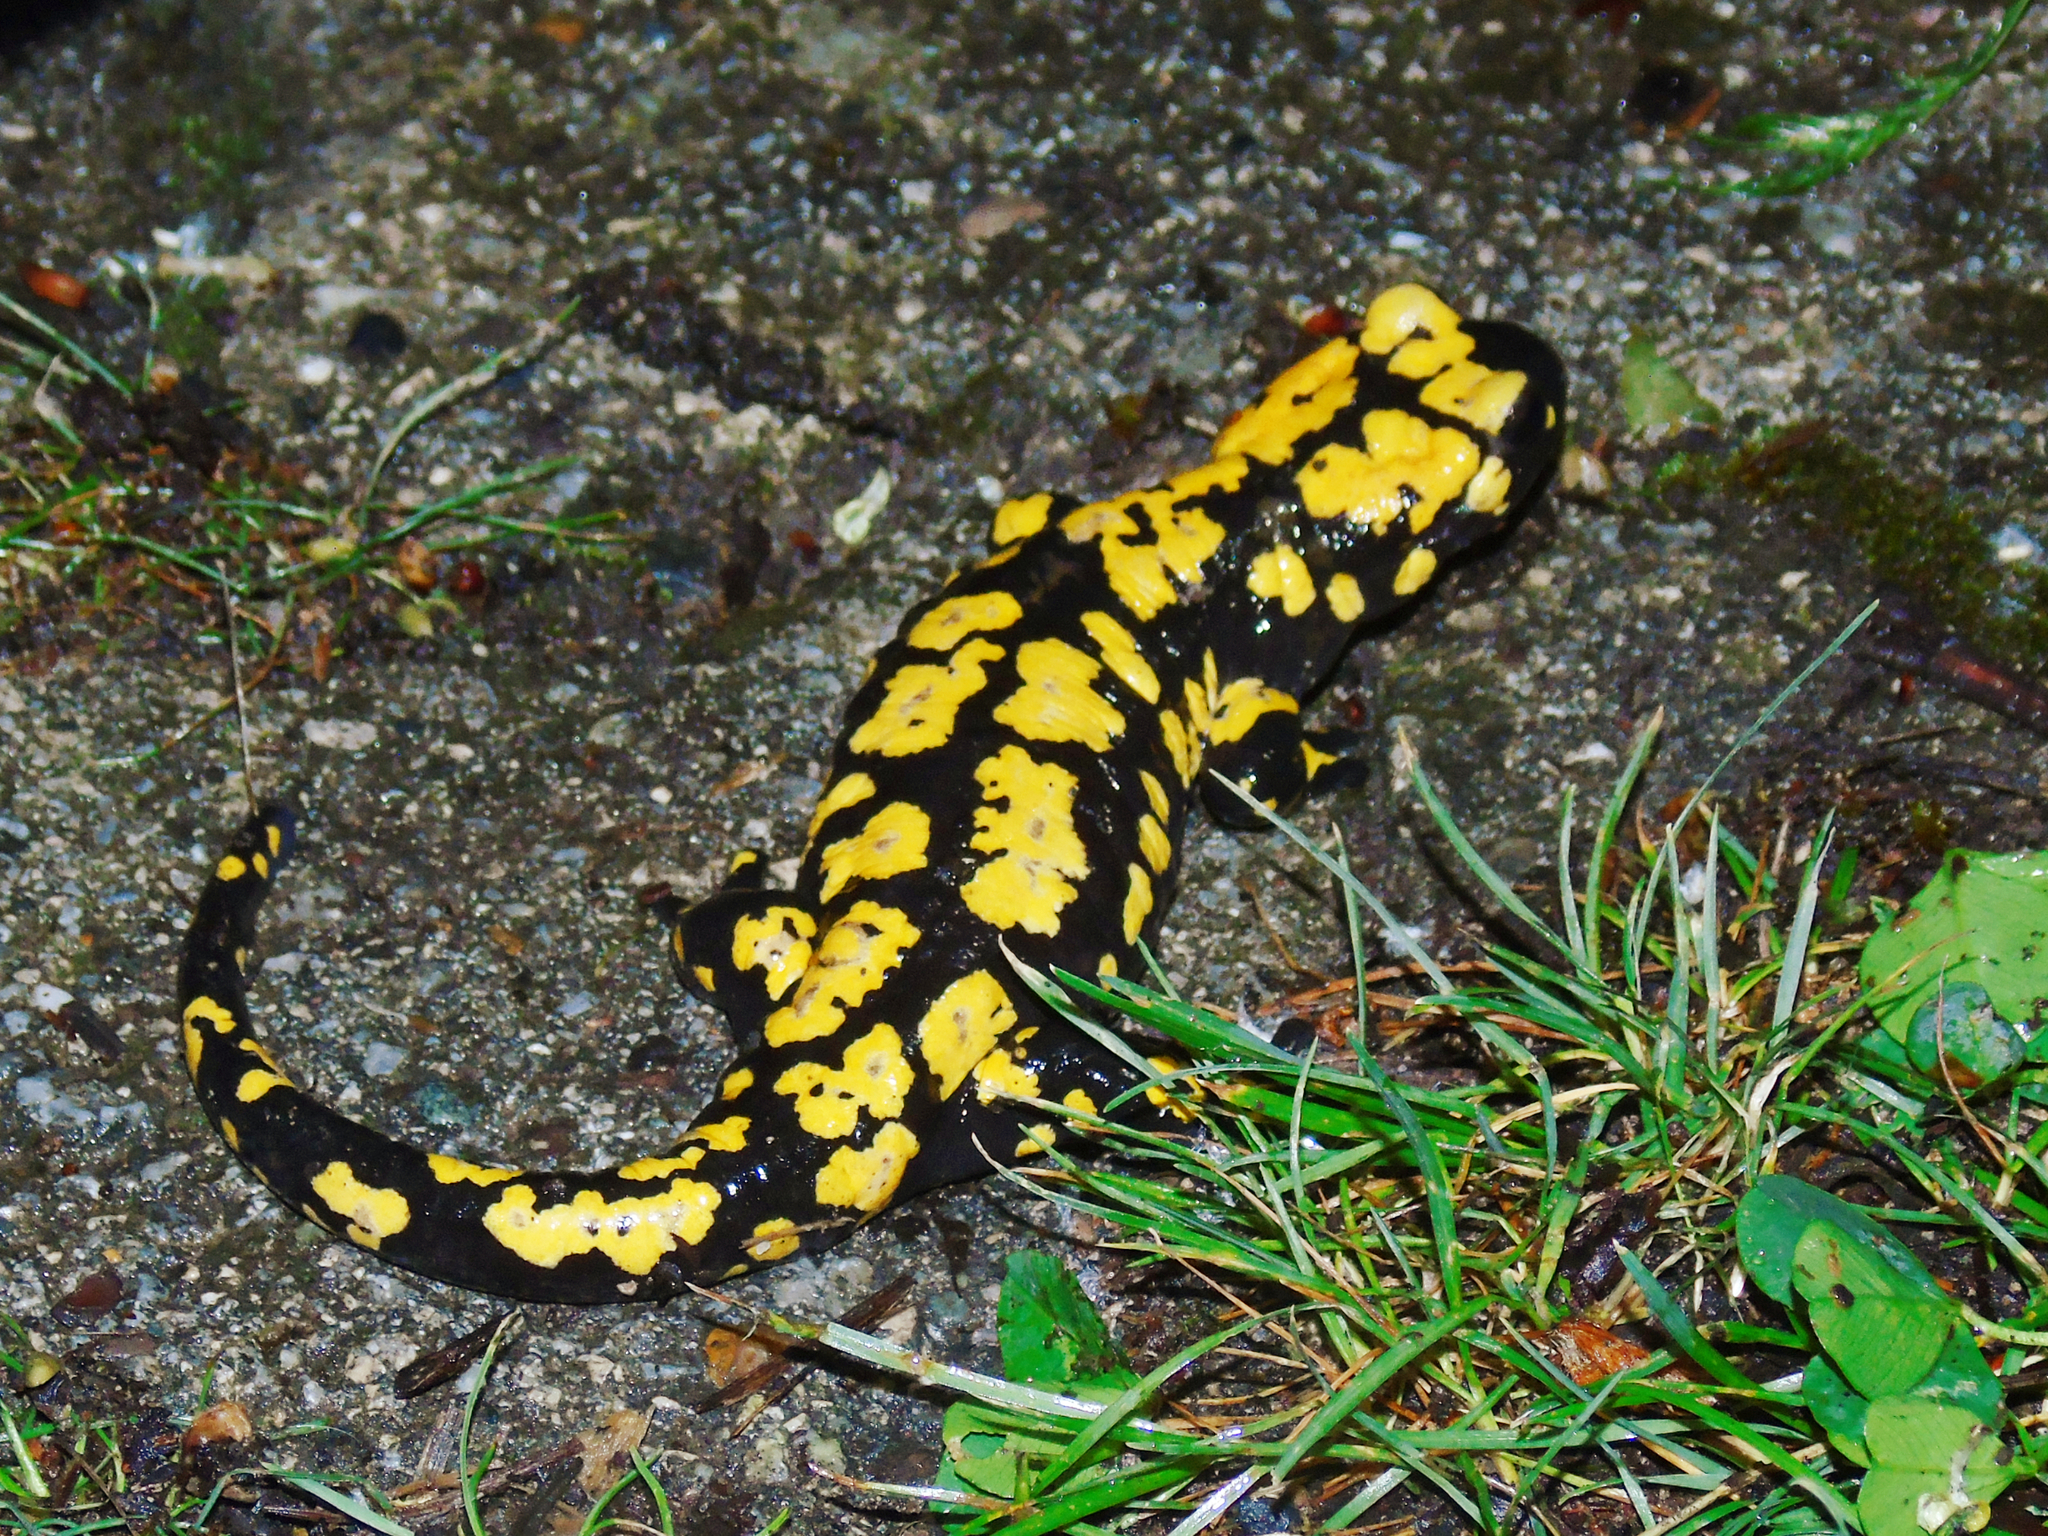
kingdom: Animalia
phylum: Chordata
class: Amphibia
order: Caudata
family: Salamandridae
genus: Salamandra
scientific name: Salamandra infraimmaculata
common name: Near-eastern fire salamander
